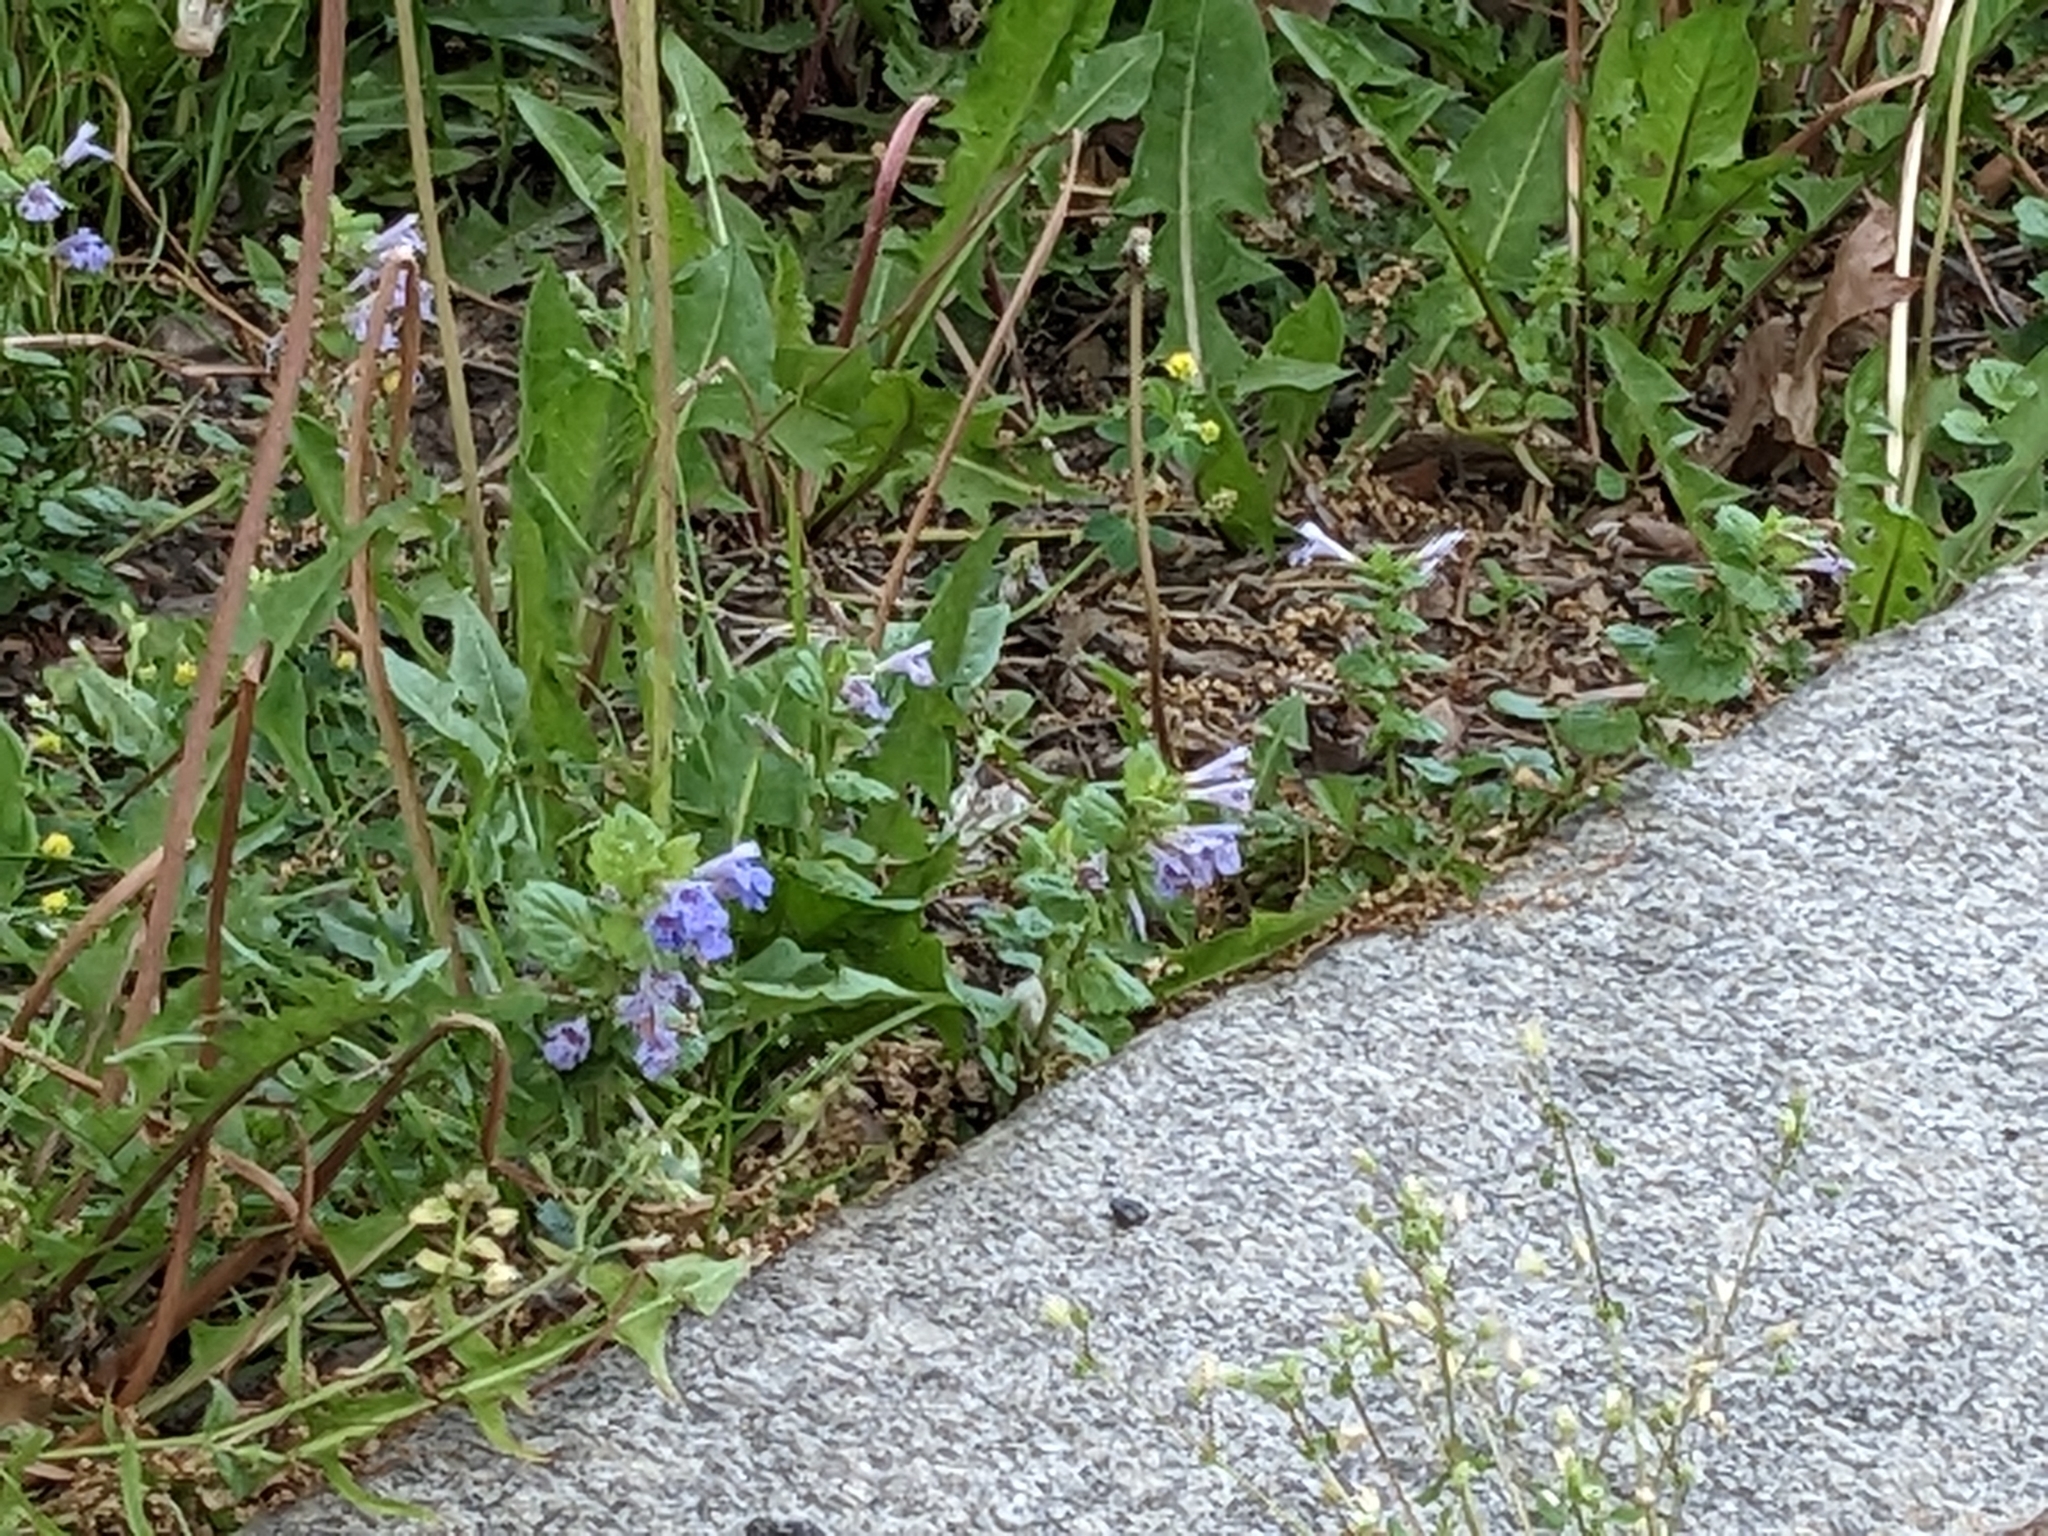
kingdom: Plantae
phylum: Tracheophyta
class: Magnoliopsida
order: Lamiales
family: Lamiaceae
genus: Glechoma
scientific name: Glechoma hederacea
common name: Ground ivy
